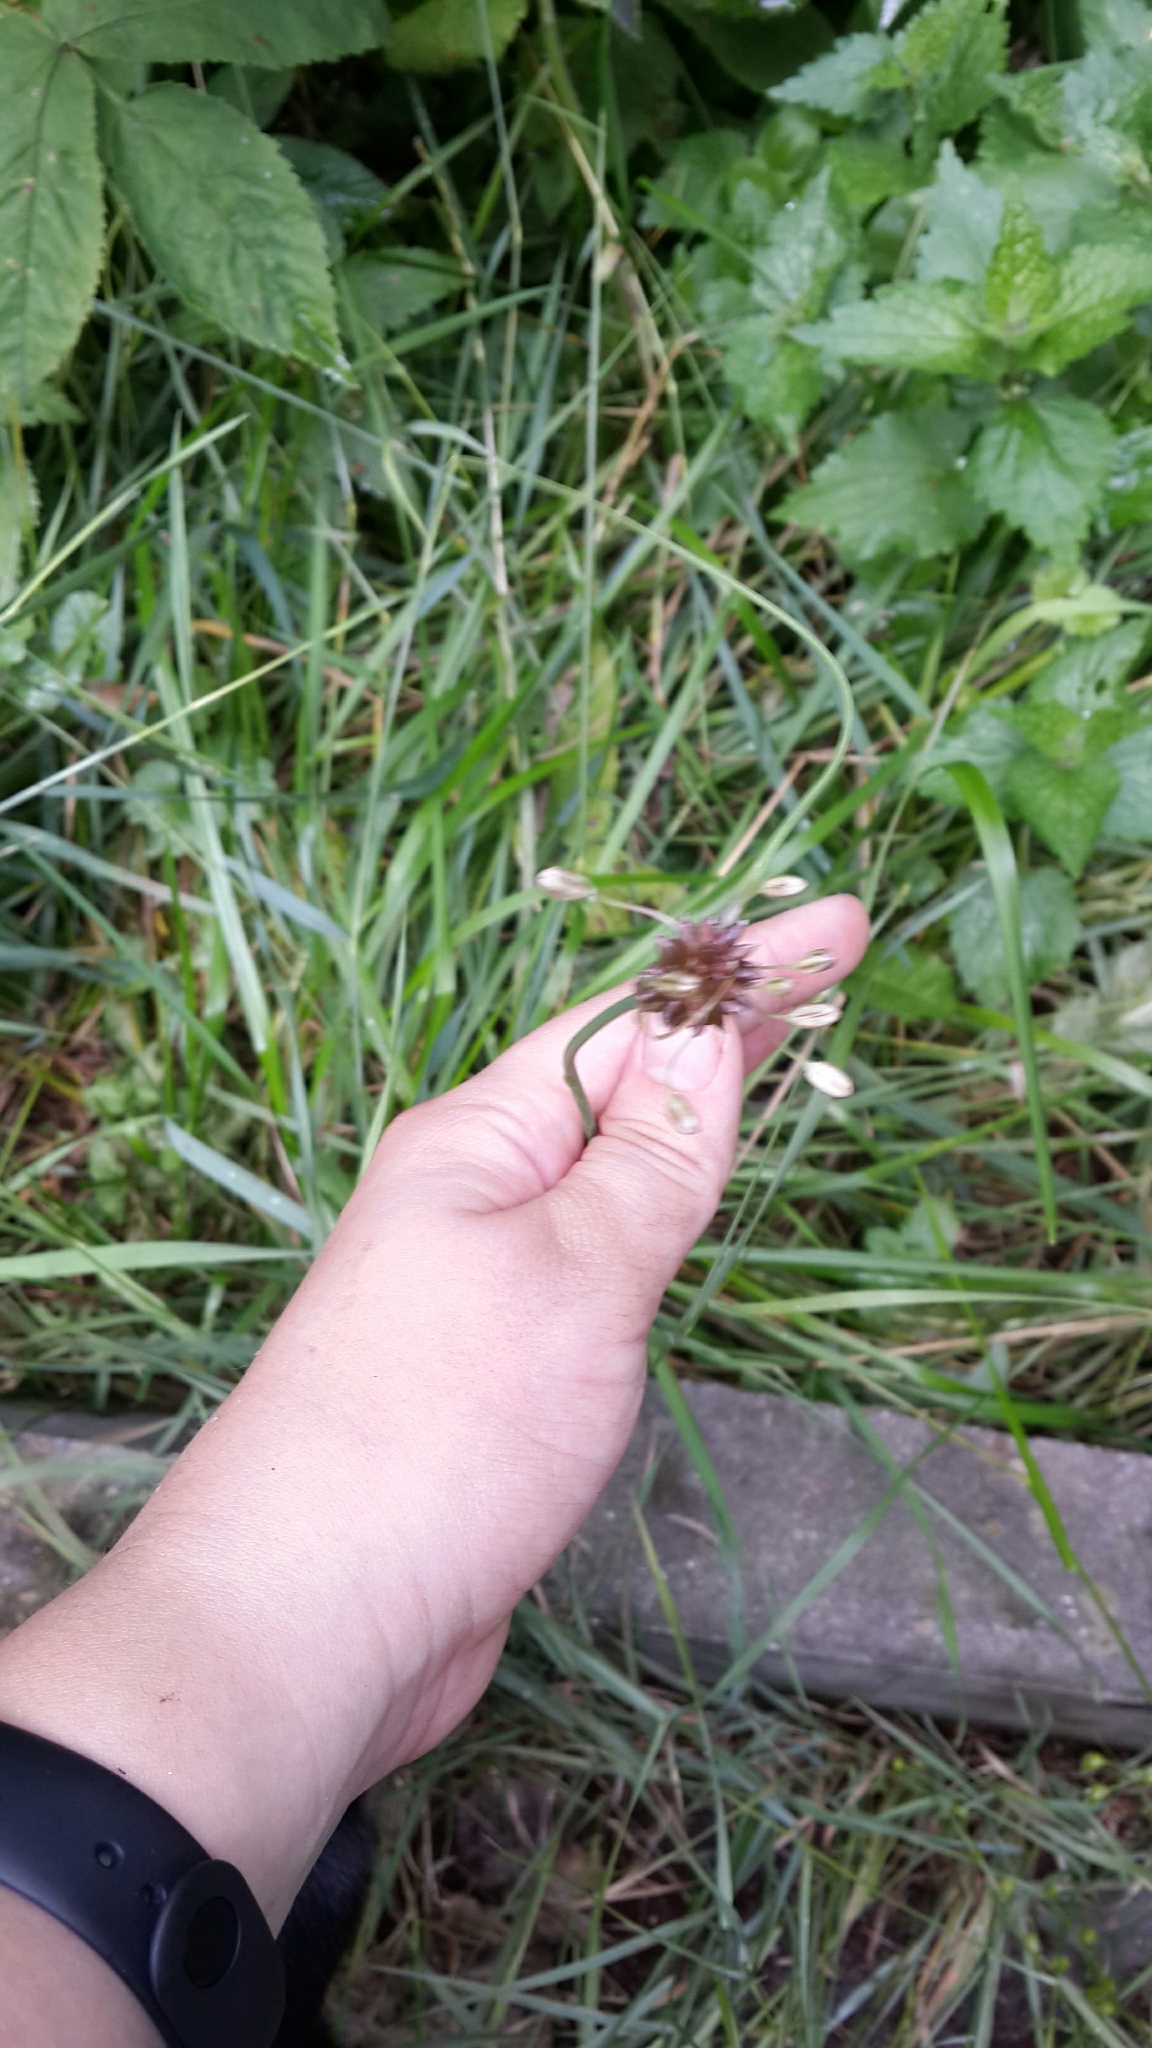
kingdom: Plantae
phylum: Tracheophyta
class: Liliopsida
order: Asparagales
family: Amaryllidaceae
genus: Allium
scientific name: Allium oleraceum
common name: Field garlic
